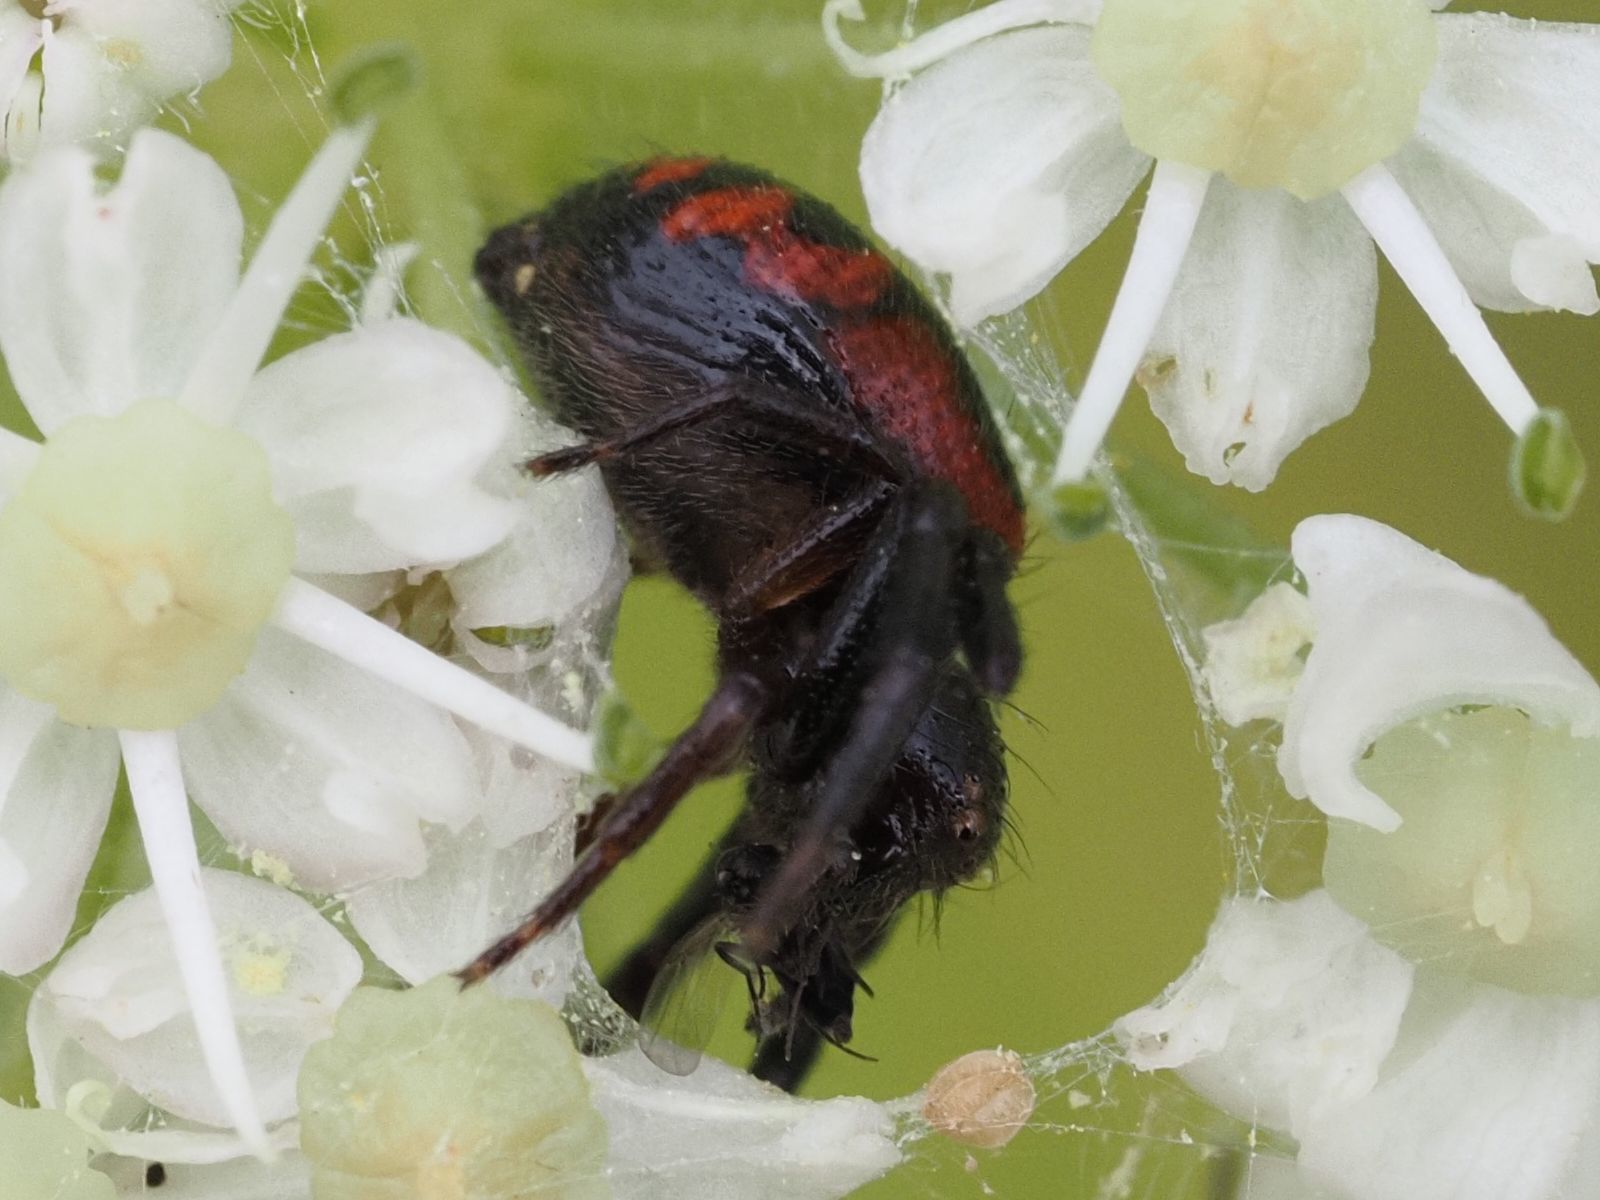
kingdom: Animalia
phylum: Arthropoda
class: Arachnida
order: Araneae
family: Thomisidae
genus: Synema
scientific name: Synema globosum
